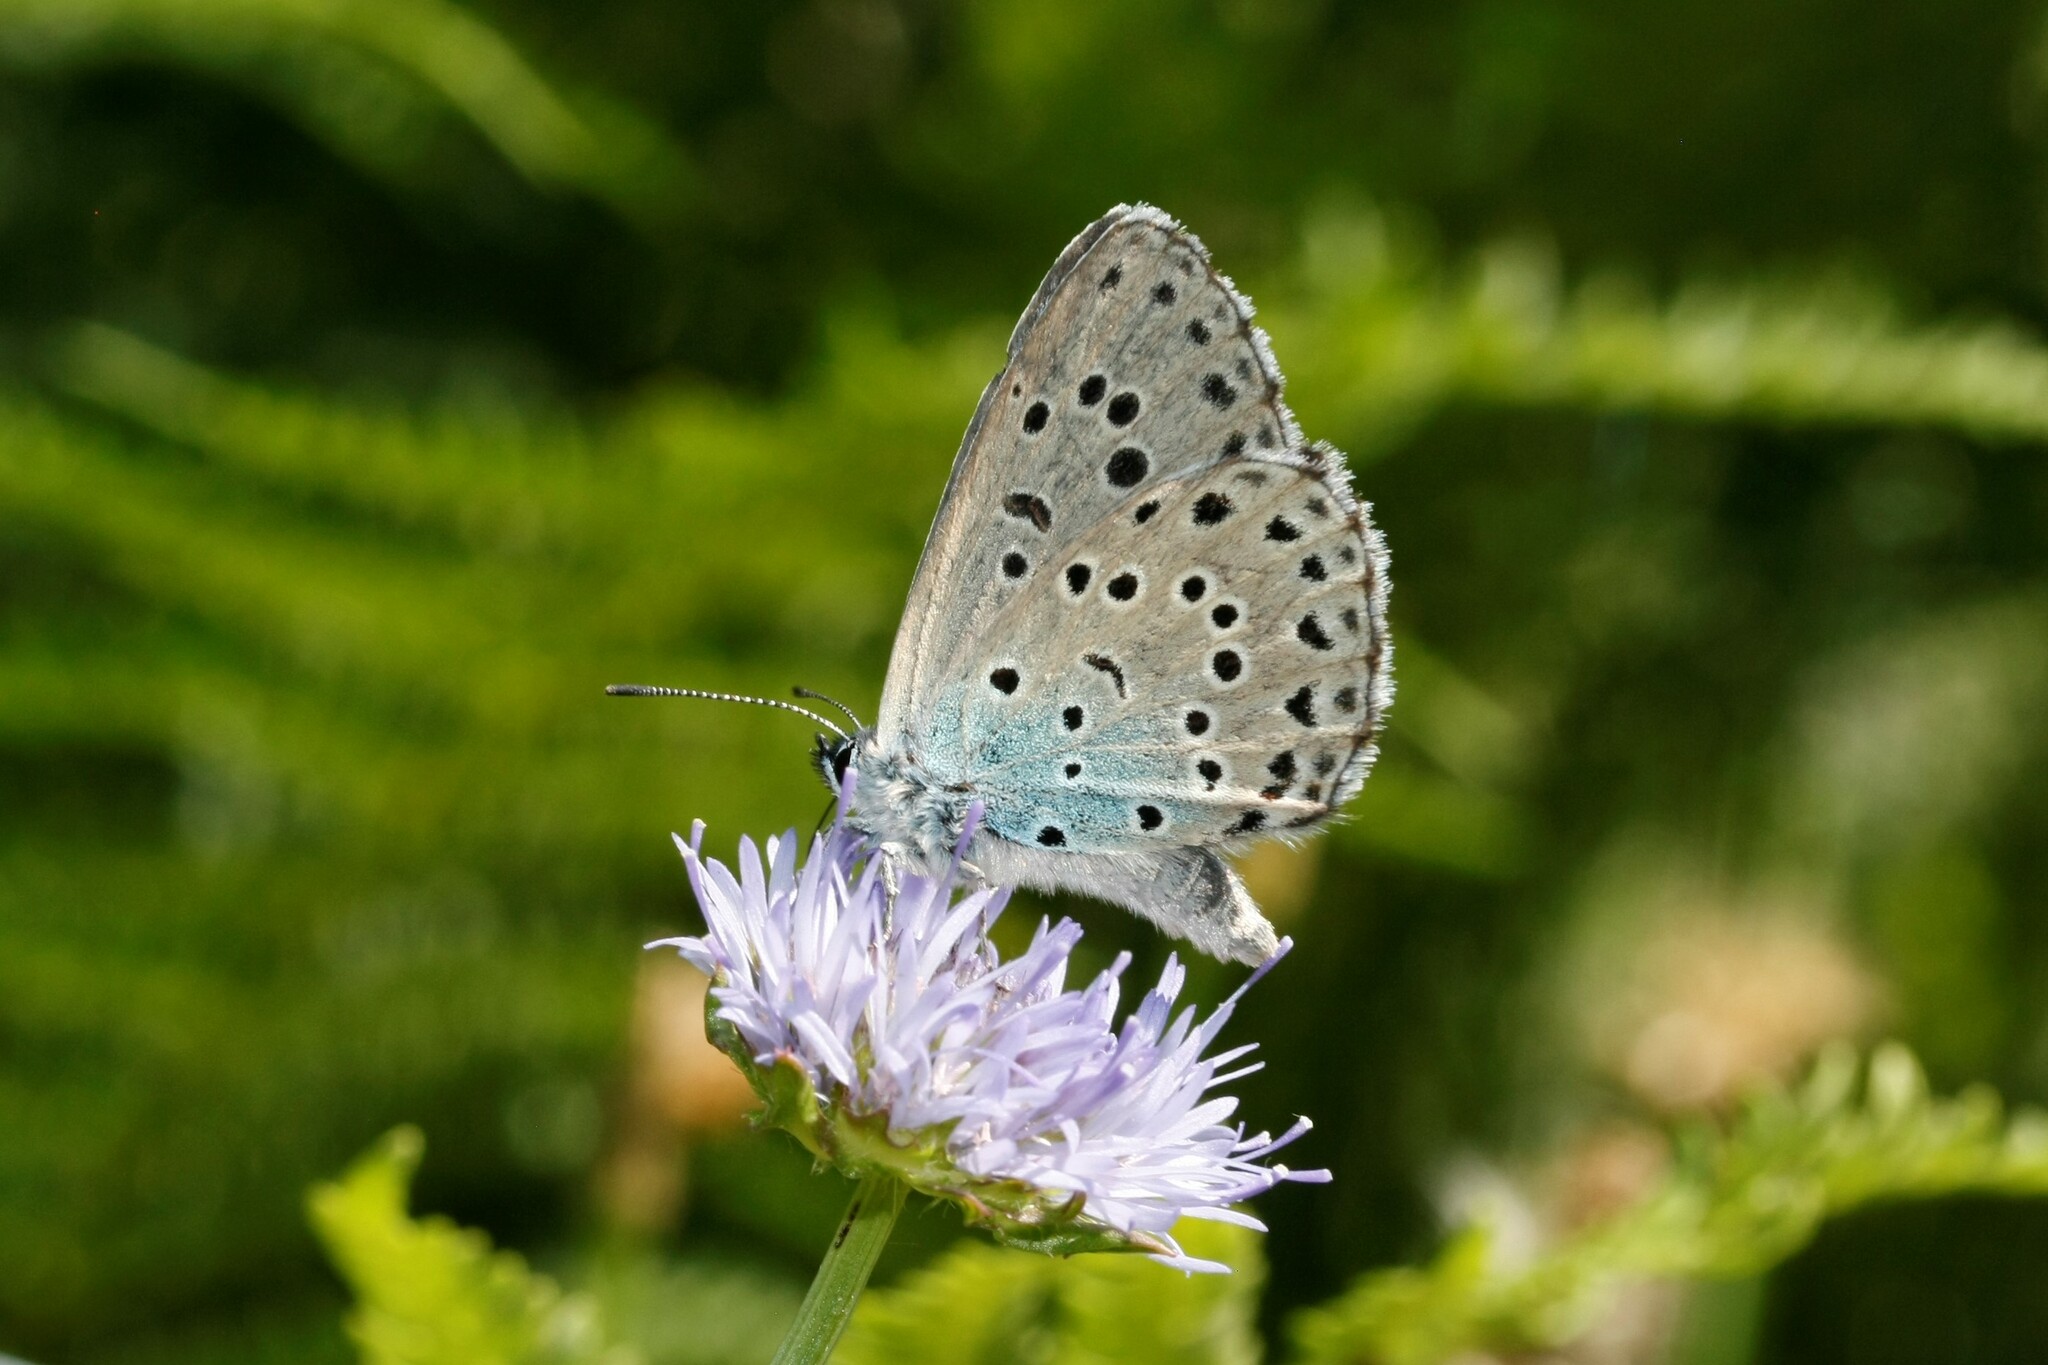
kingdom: Animalia
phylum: Arthropoda
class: Insecta
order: Lepidoptera
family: Lycaenidae
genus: Maculinea
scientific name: Maculinea arion
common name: Large blue
